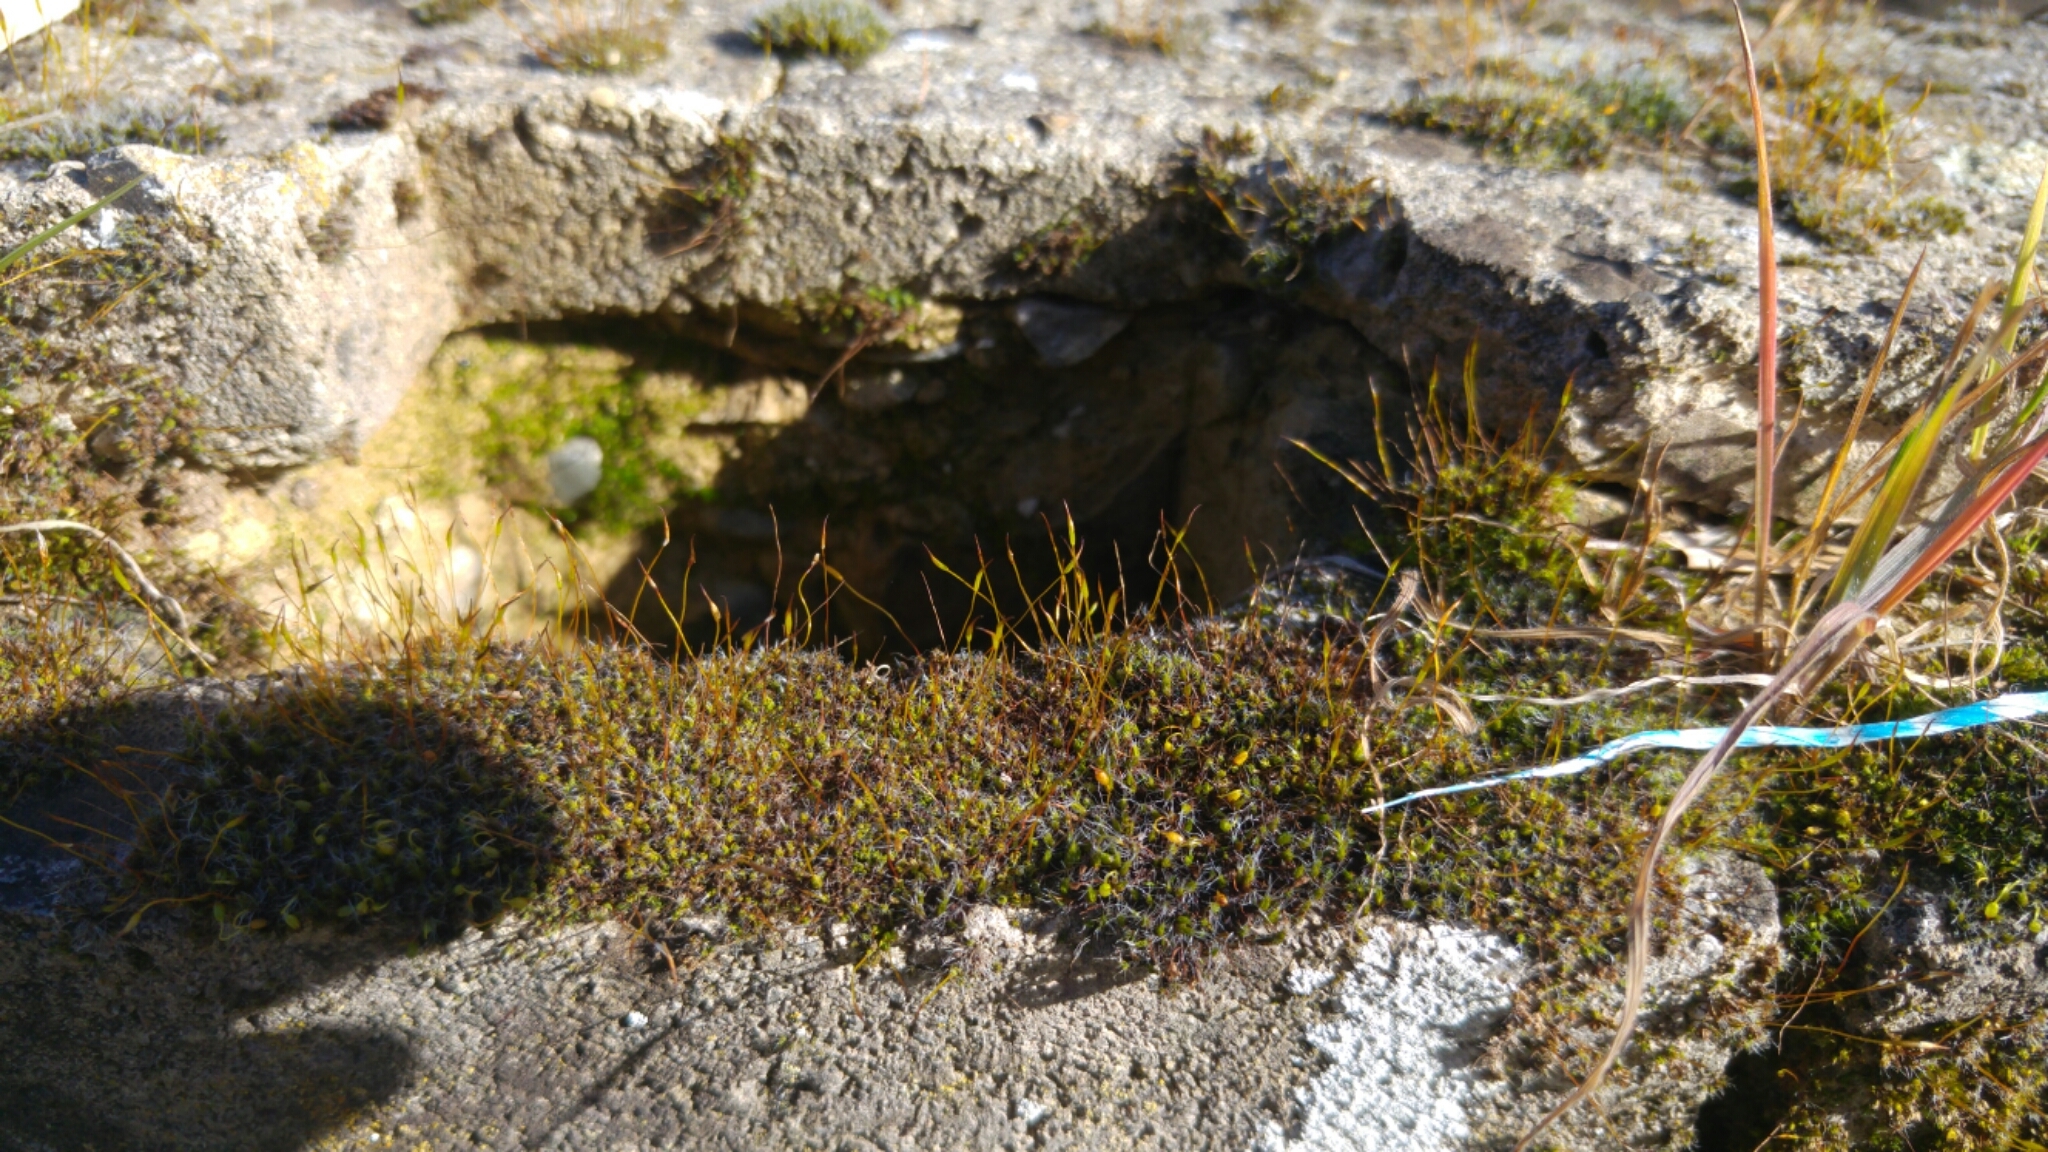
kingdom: Plantae
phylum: Bryophyta
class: Bryopsida
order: Pottiales
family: Pottiaceae
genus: Tortula
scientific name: Tortula muralis
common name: Wall screw-moss
